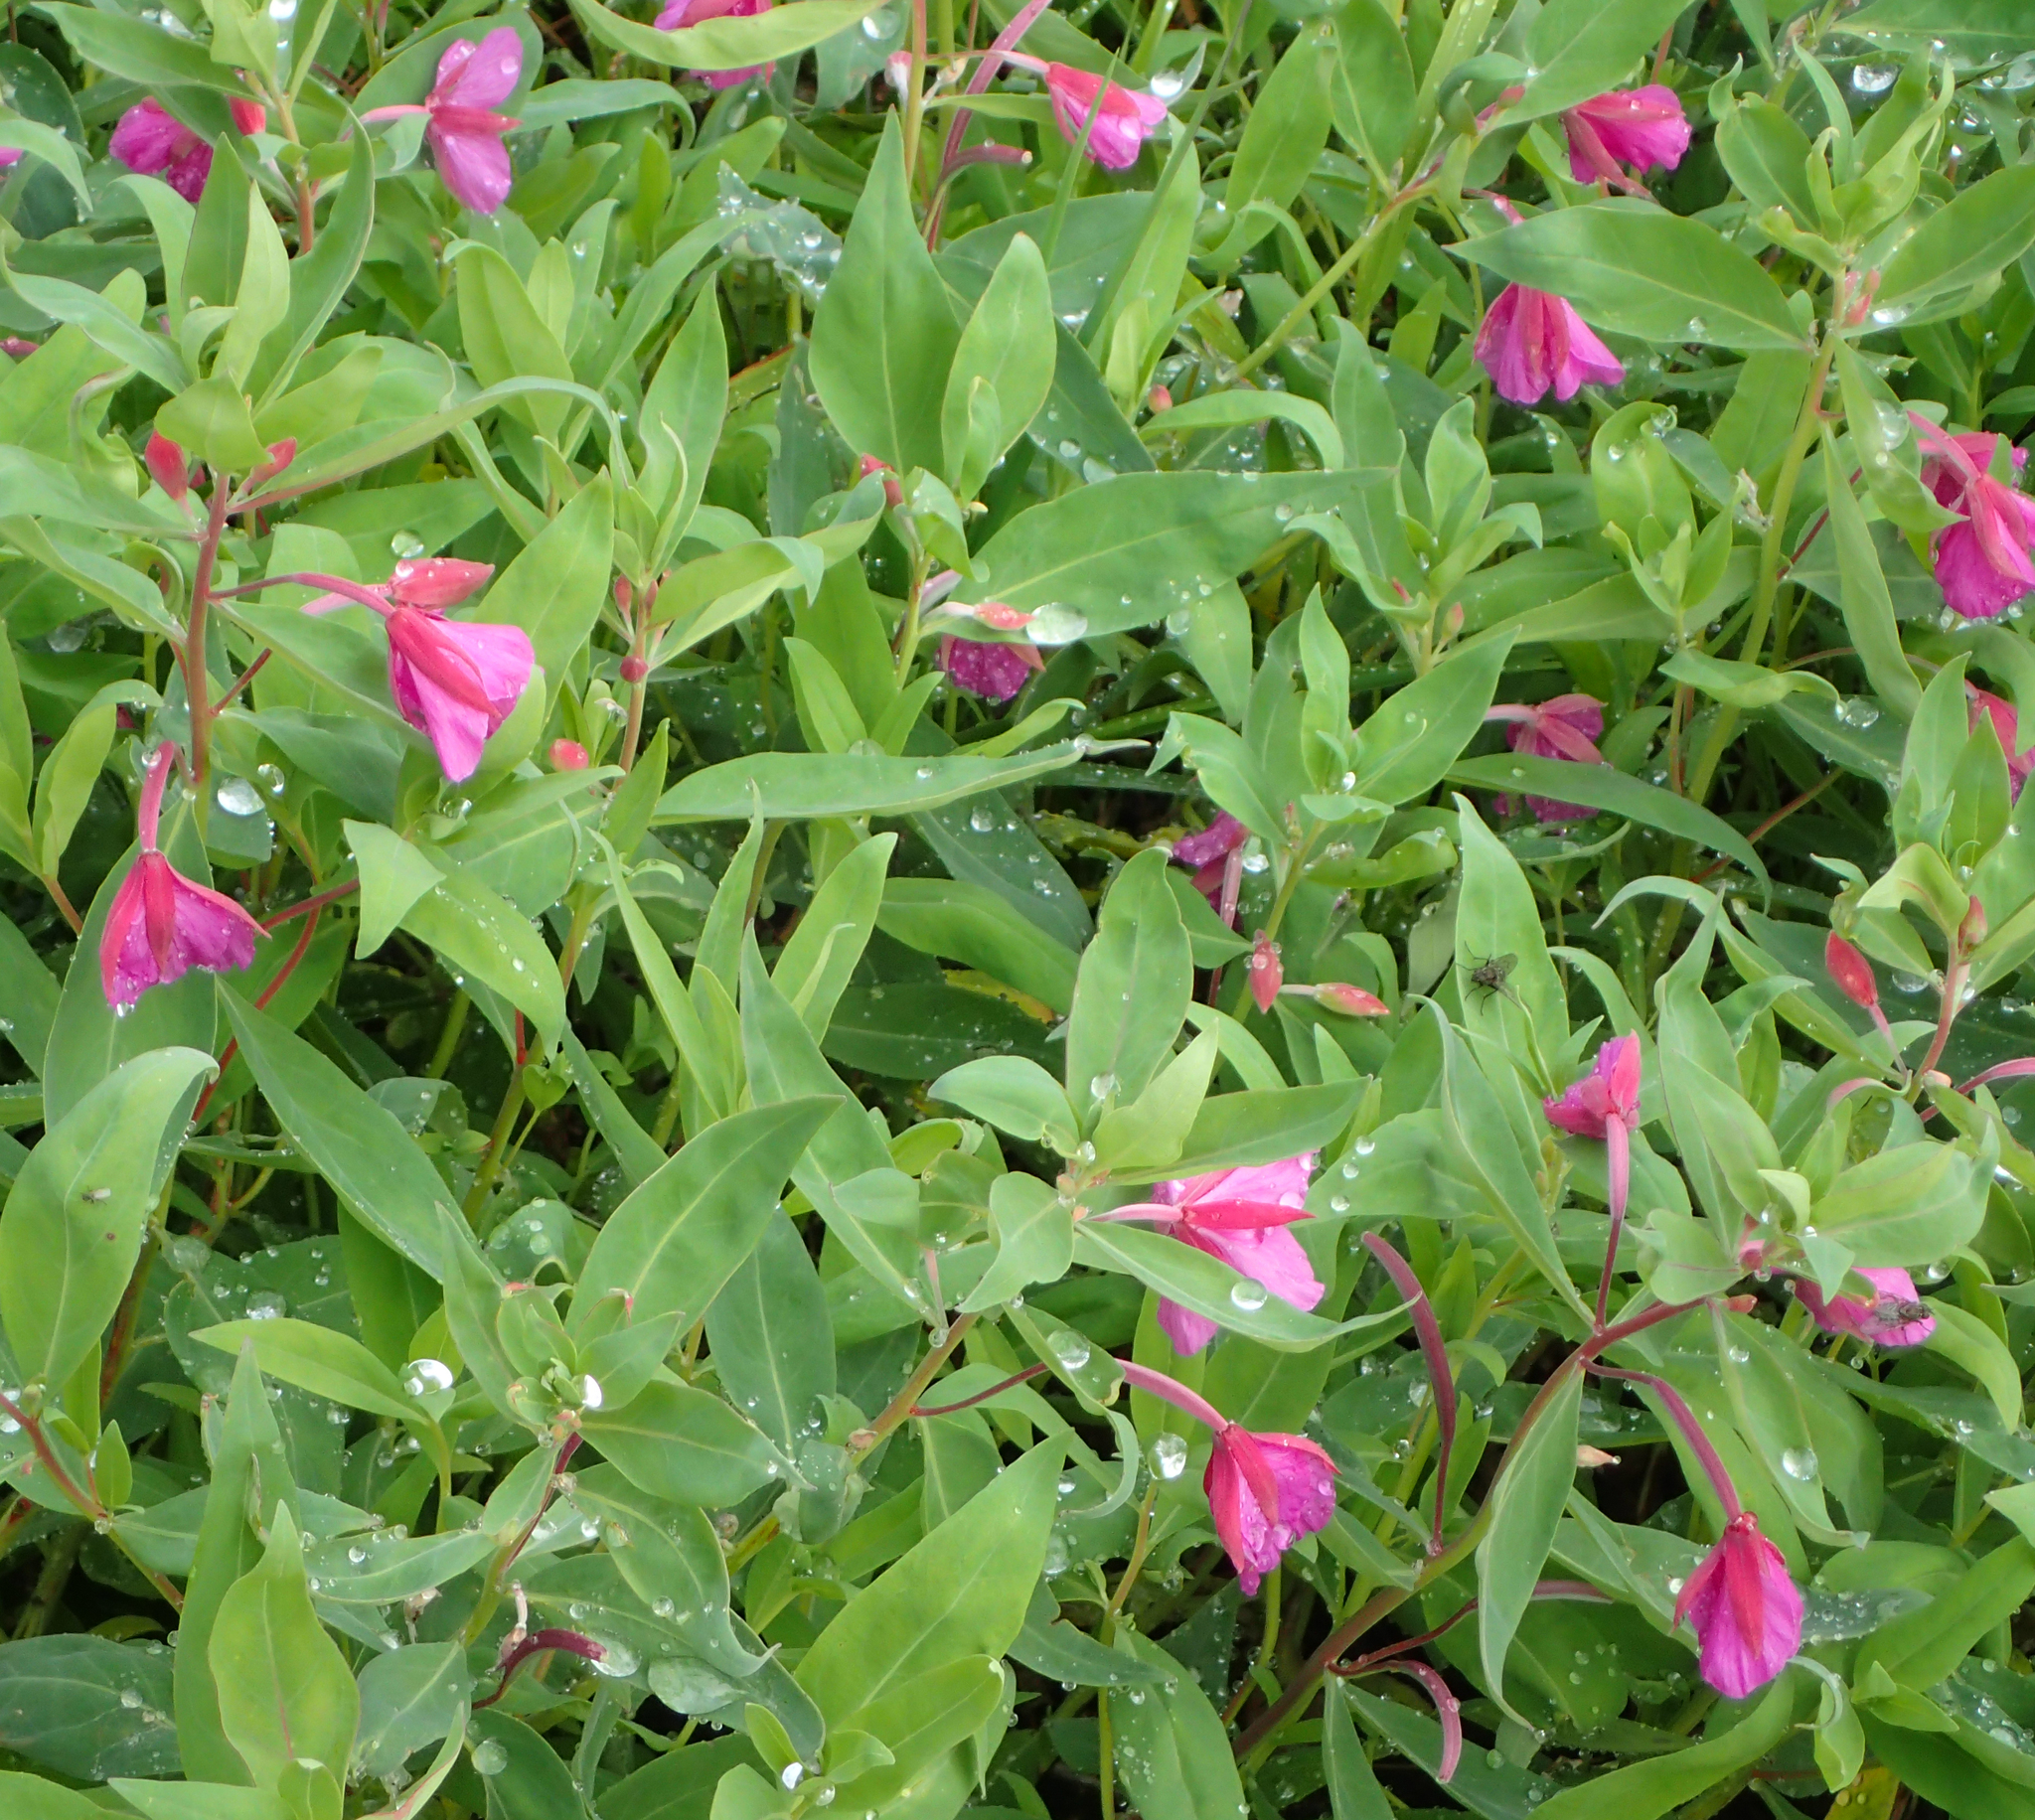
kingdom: Plantae
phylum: Tracheophyta
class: Magnoliopsida
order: Myrtales
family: Onagraceae
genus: Chamaenerion
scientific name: Chamaenerion latifolium
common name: Dwarf fireweed
